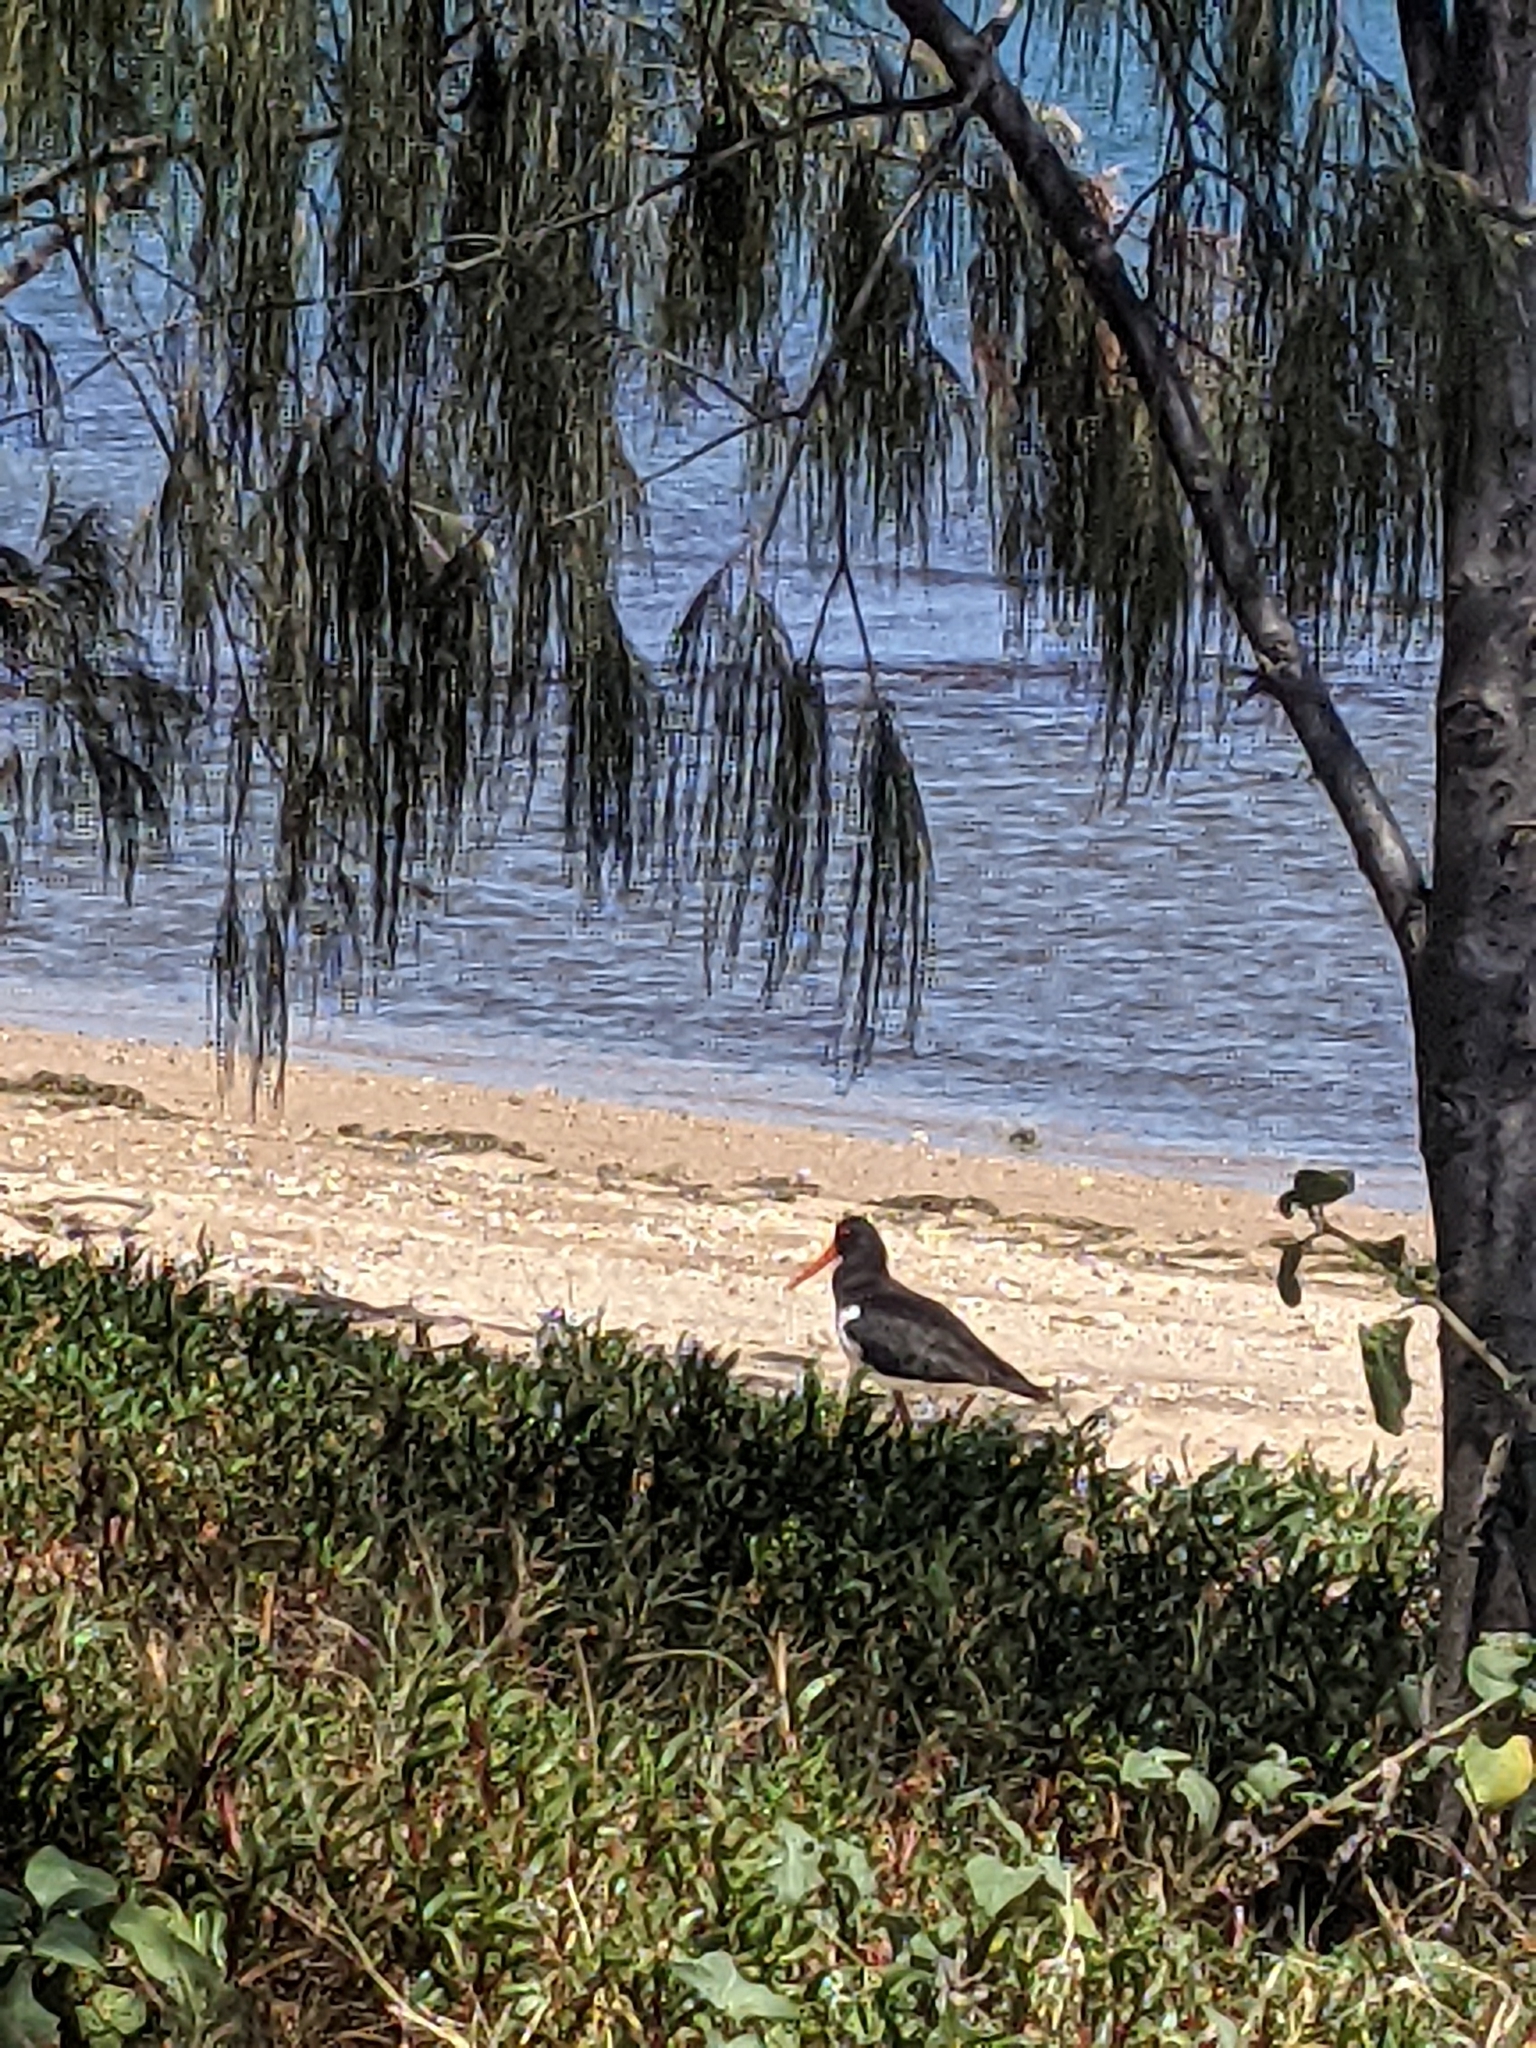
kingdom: Animalia
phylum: Chordata
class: Aves
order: Charadriiformes
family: Haematopodidae
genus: Haematopus
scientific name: Haematopus longirostris
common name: Pied oystercatcher
